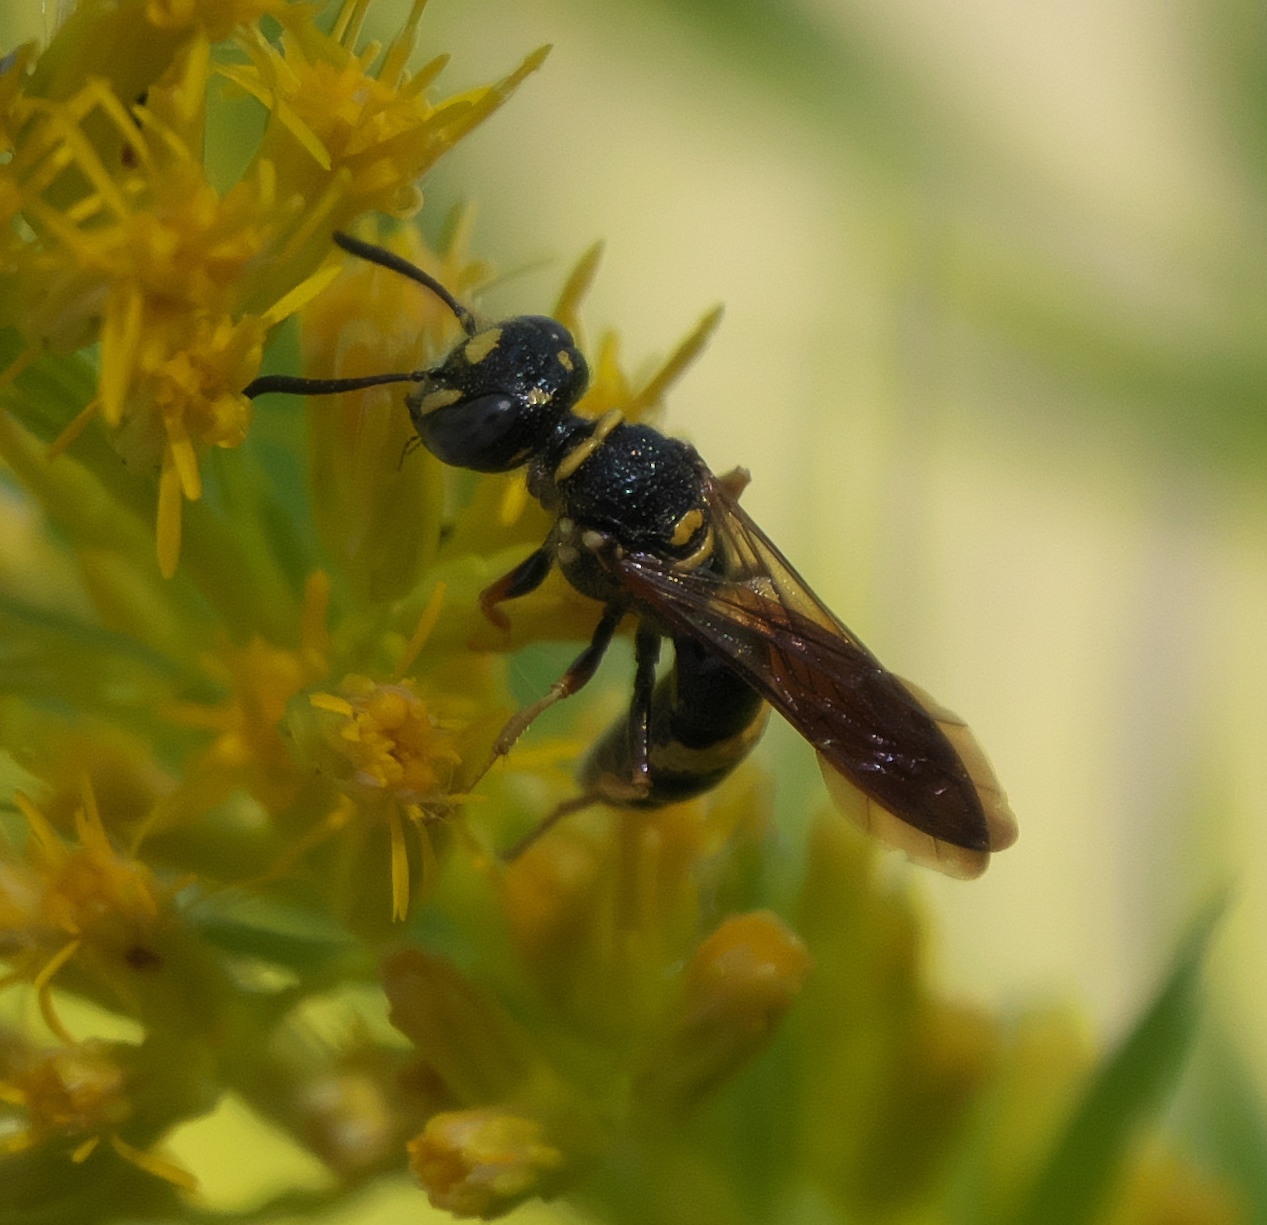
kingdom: Animalia
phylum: Arthropoda
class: Insecta
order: Hymenoptera
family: Crabronidae
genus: Philanthus
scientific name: Philanthus gibbosus
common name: Humped beewolf
